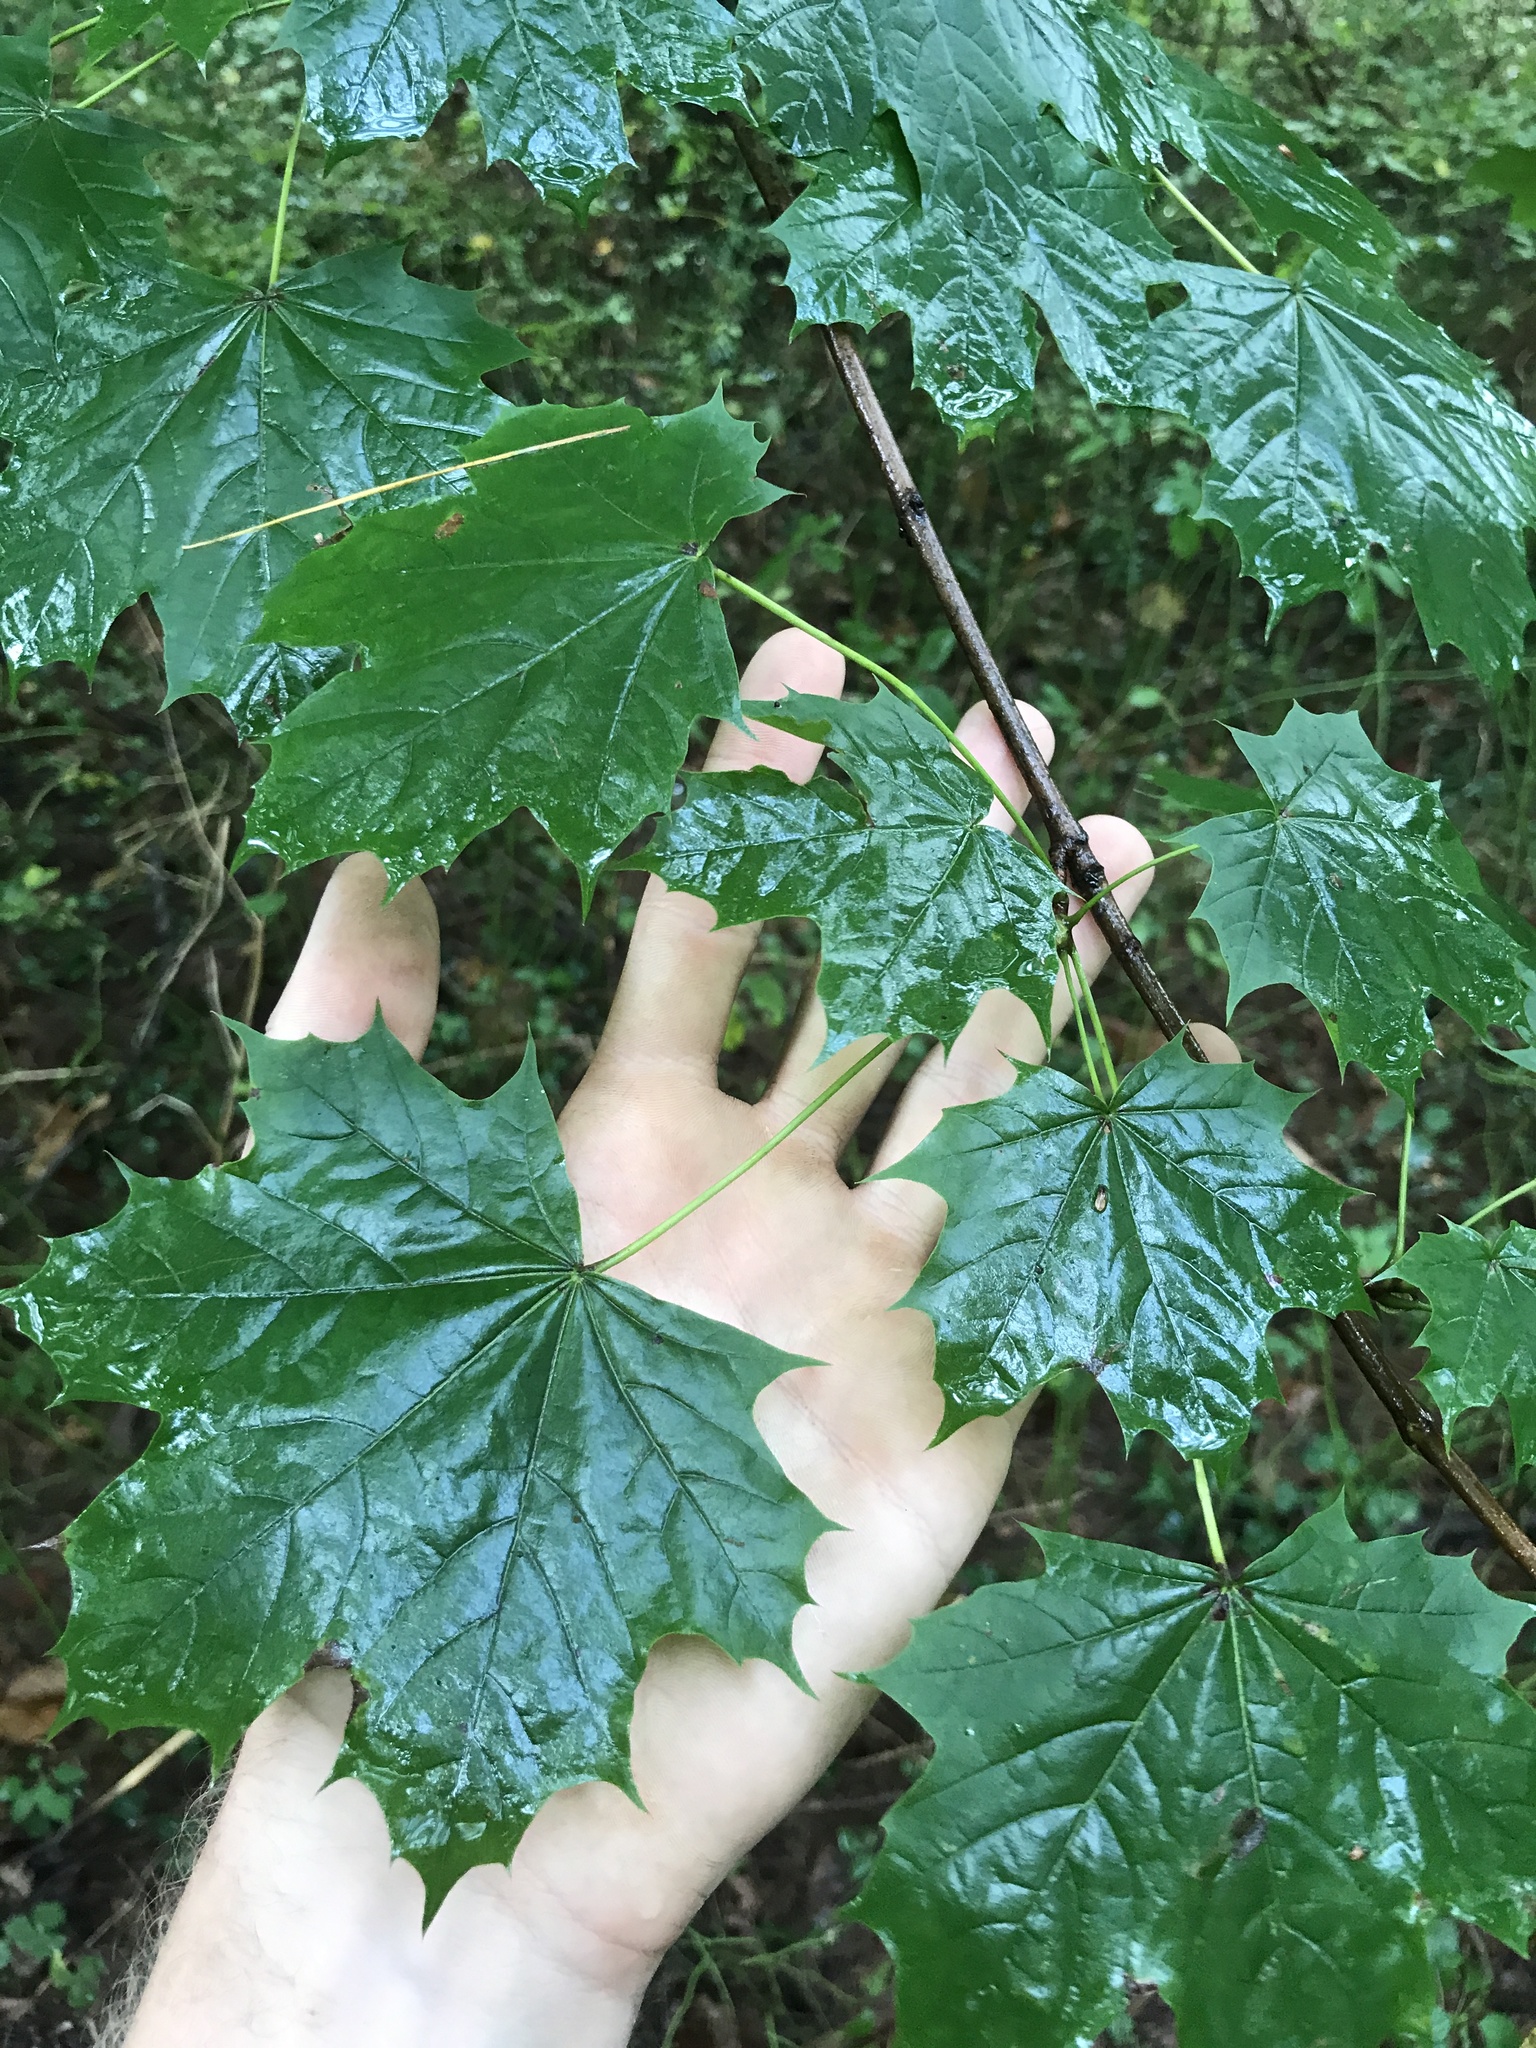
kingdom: Plantae
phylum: Tracheophyta
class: Magnoliopsida
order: Sapindales
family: Sapindaceae
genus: Acer
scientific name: Acer platanoides
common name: Norway maple
